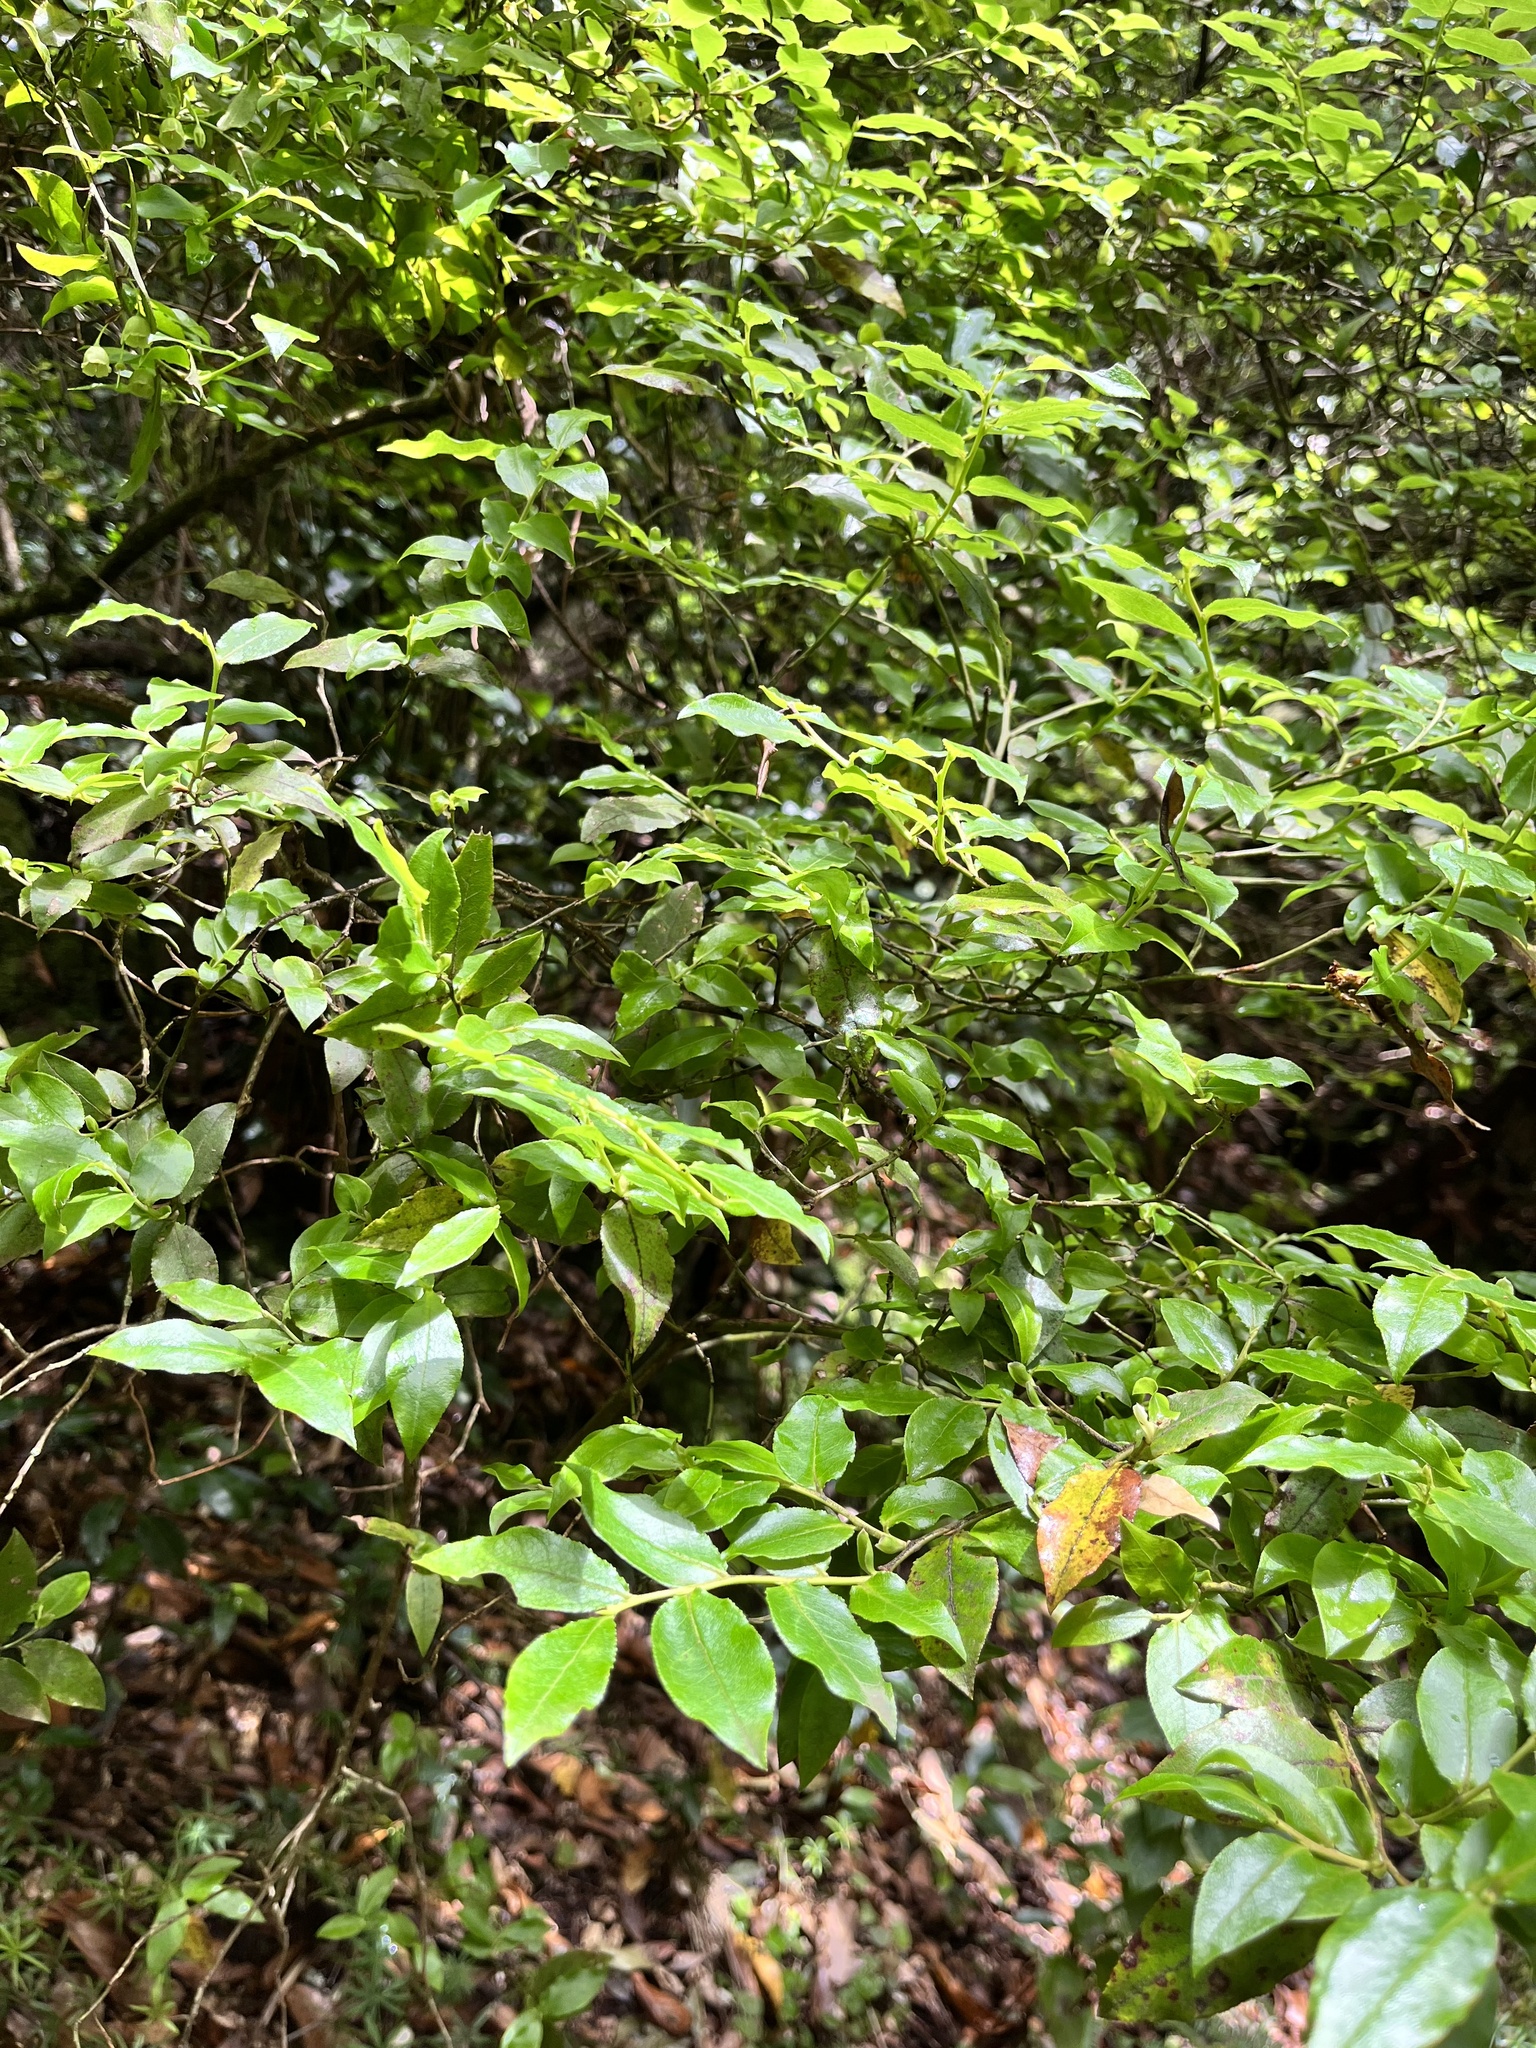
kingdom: Plantae
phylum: Tracheophyta
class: Magnoliopsida
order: Ericales
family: Ericaceae
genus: Vaccinium
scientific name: Vaccinium padifolium
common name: Madeiran blueberry
